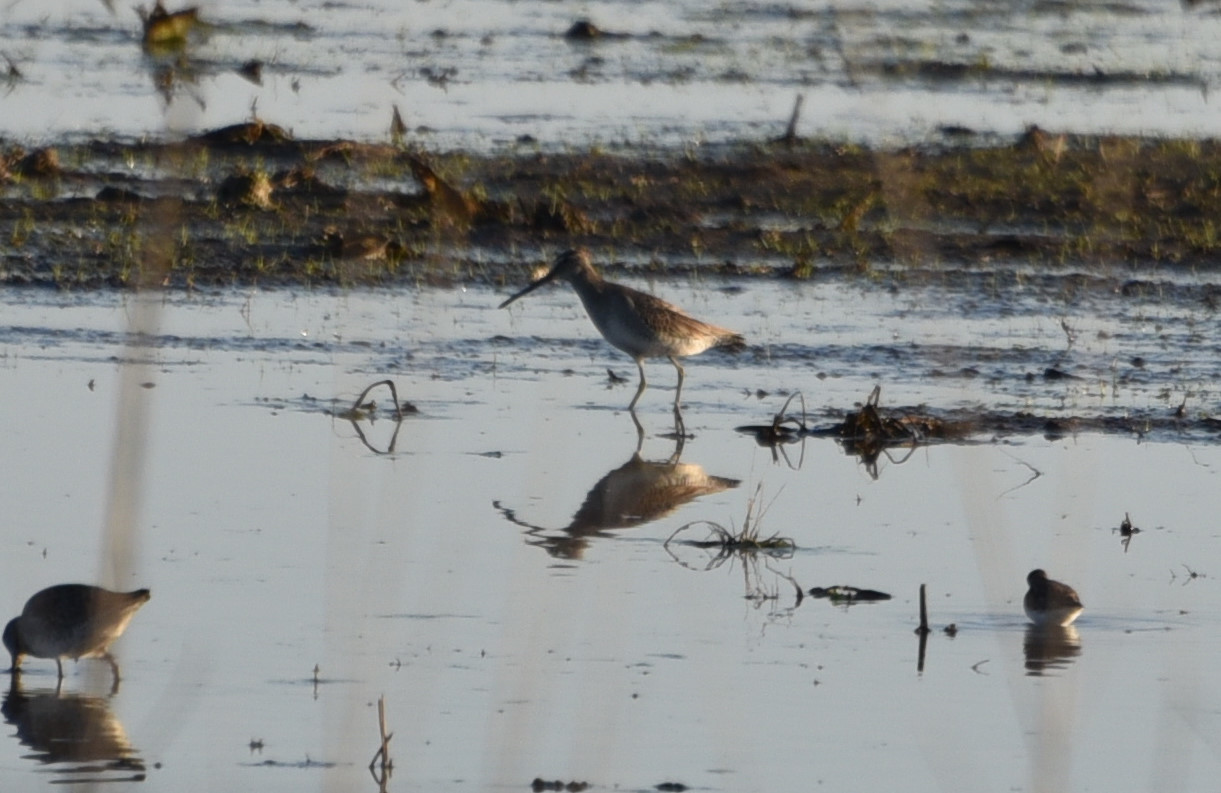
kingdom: Animalia
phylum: Chordata
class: Aves
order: Charadriiformes
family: Scolopacidae
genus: Limnodromus
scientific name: Limnodromus scolopaceus
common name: Long-billed dowitcher
